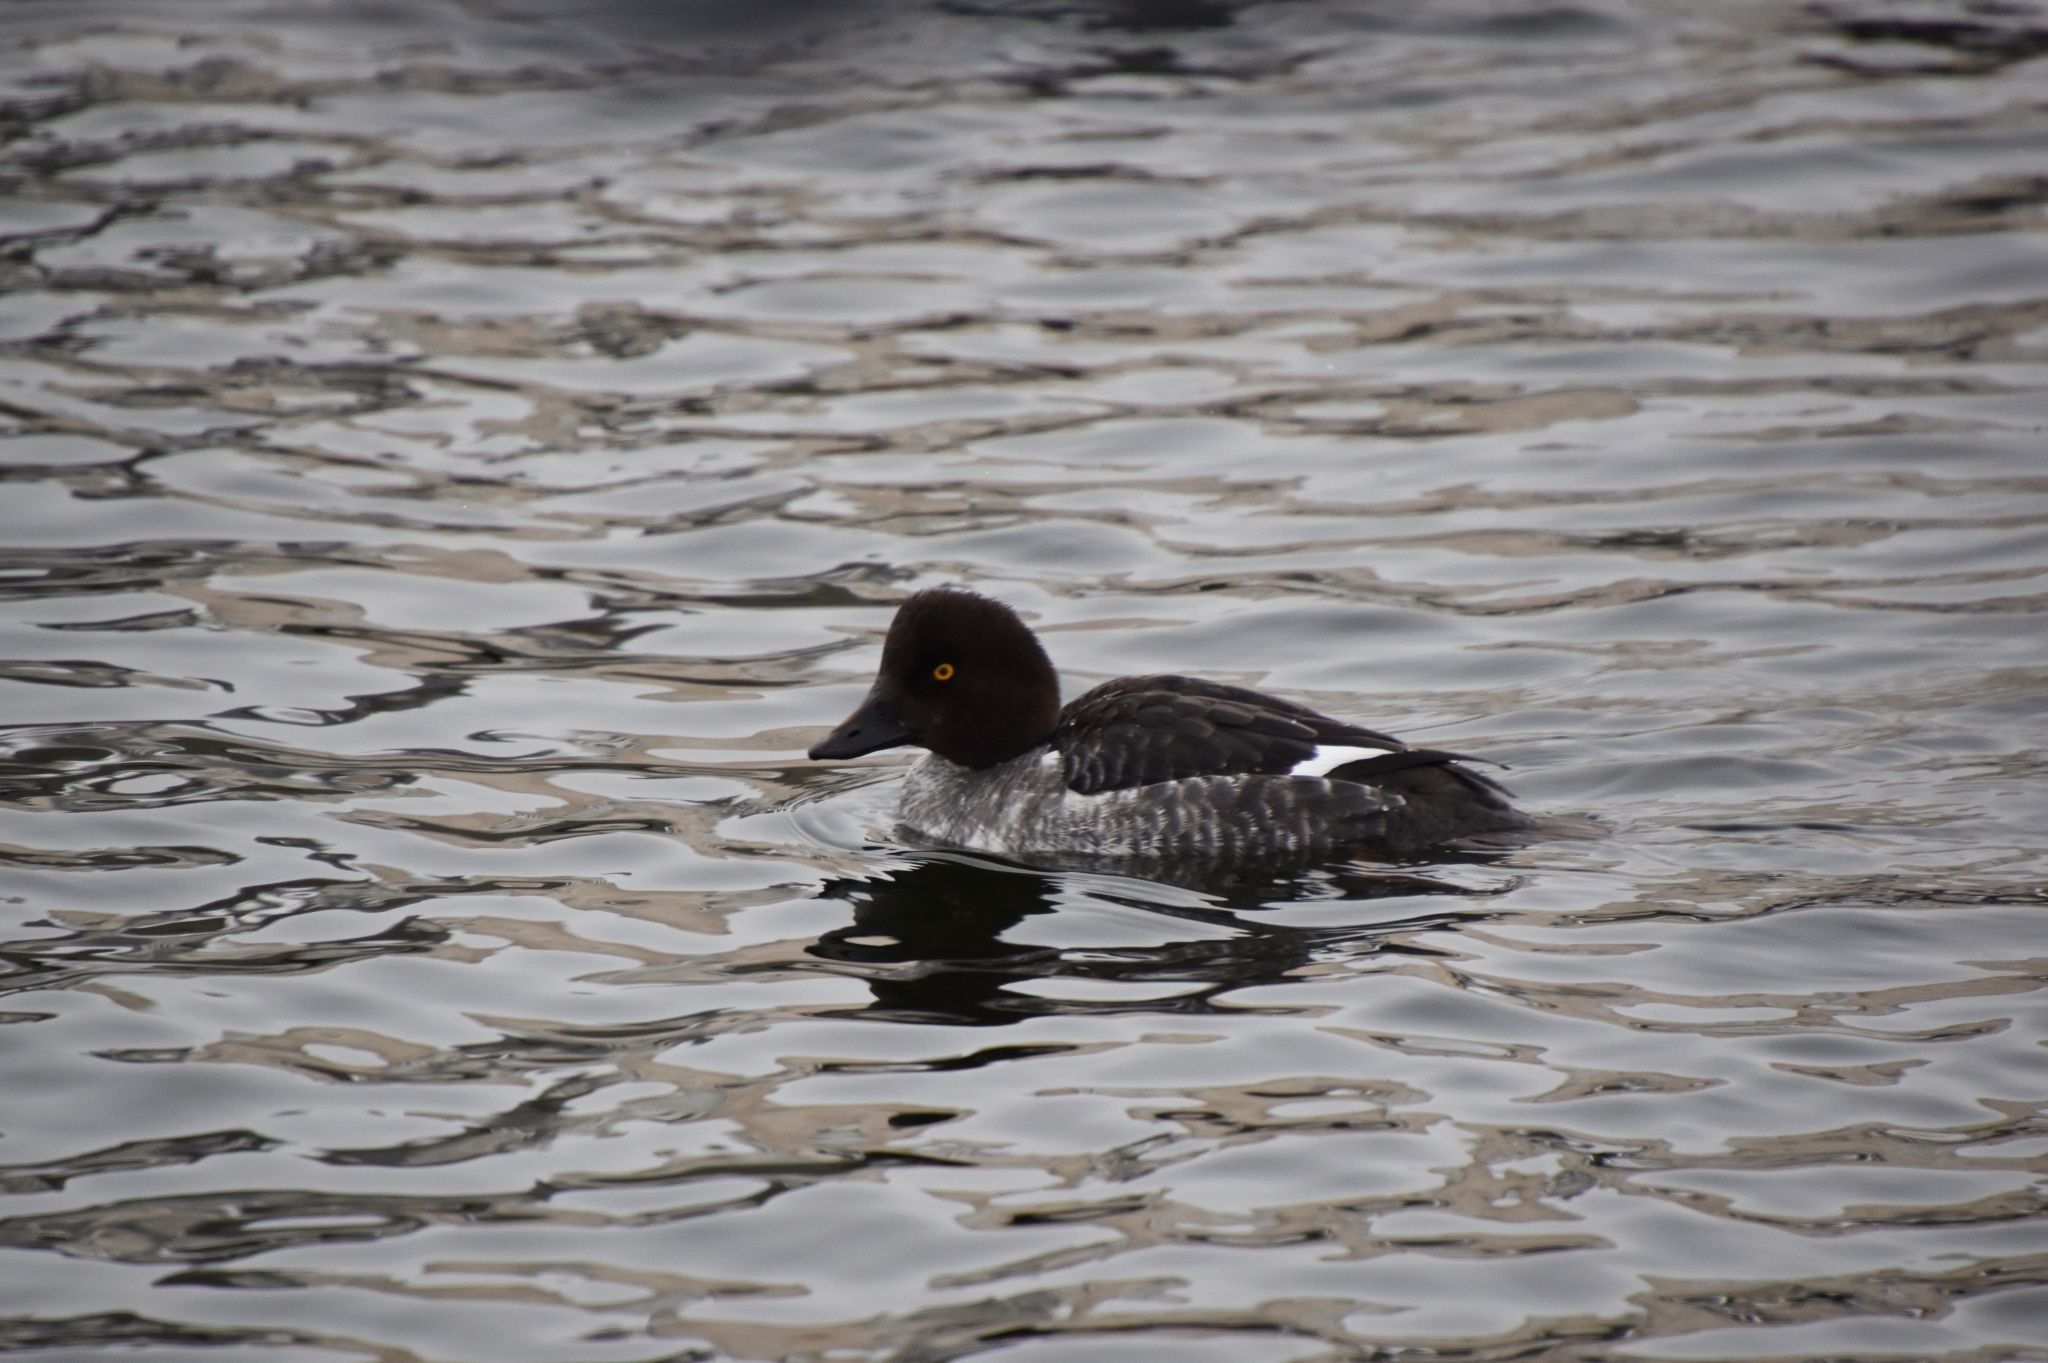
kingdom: Animalia
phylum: Chordata
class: Aves
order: Anseriformes
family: Anatidae
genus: Bucephala
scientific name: Bucephala clangula
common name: Common goldeneye
